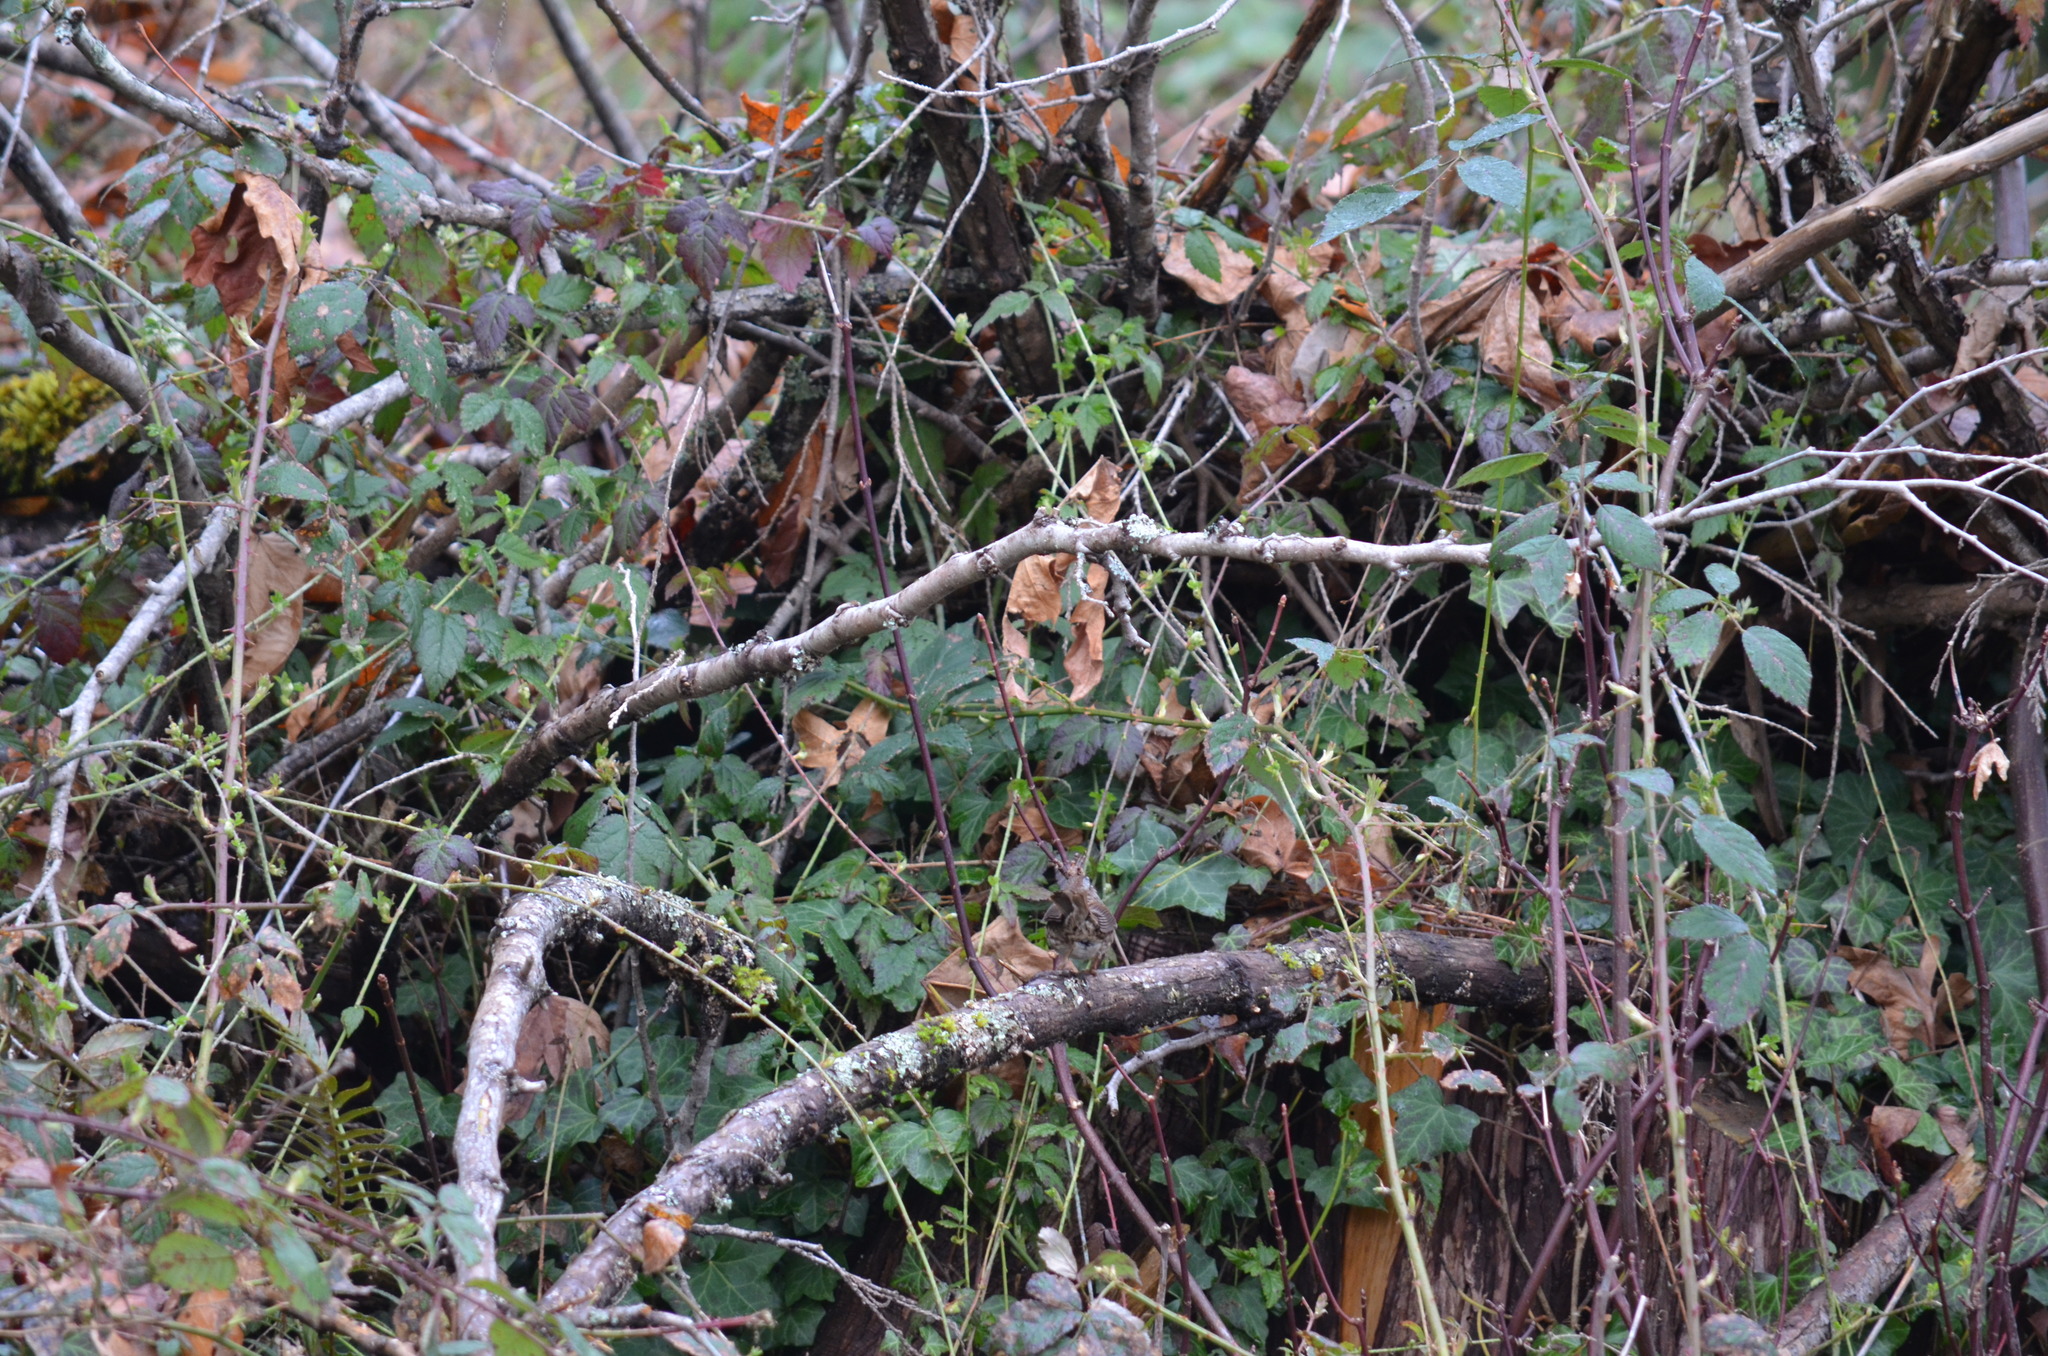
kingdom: Animalia
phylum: Chordata
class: Aves
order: Passeriformes
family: Passerellidae
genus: Melospiza
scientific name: Melospiza melodia
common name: Song sparrow
